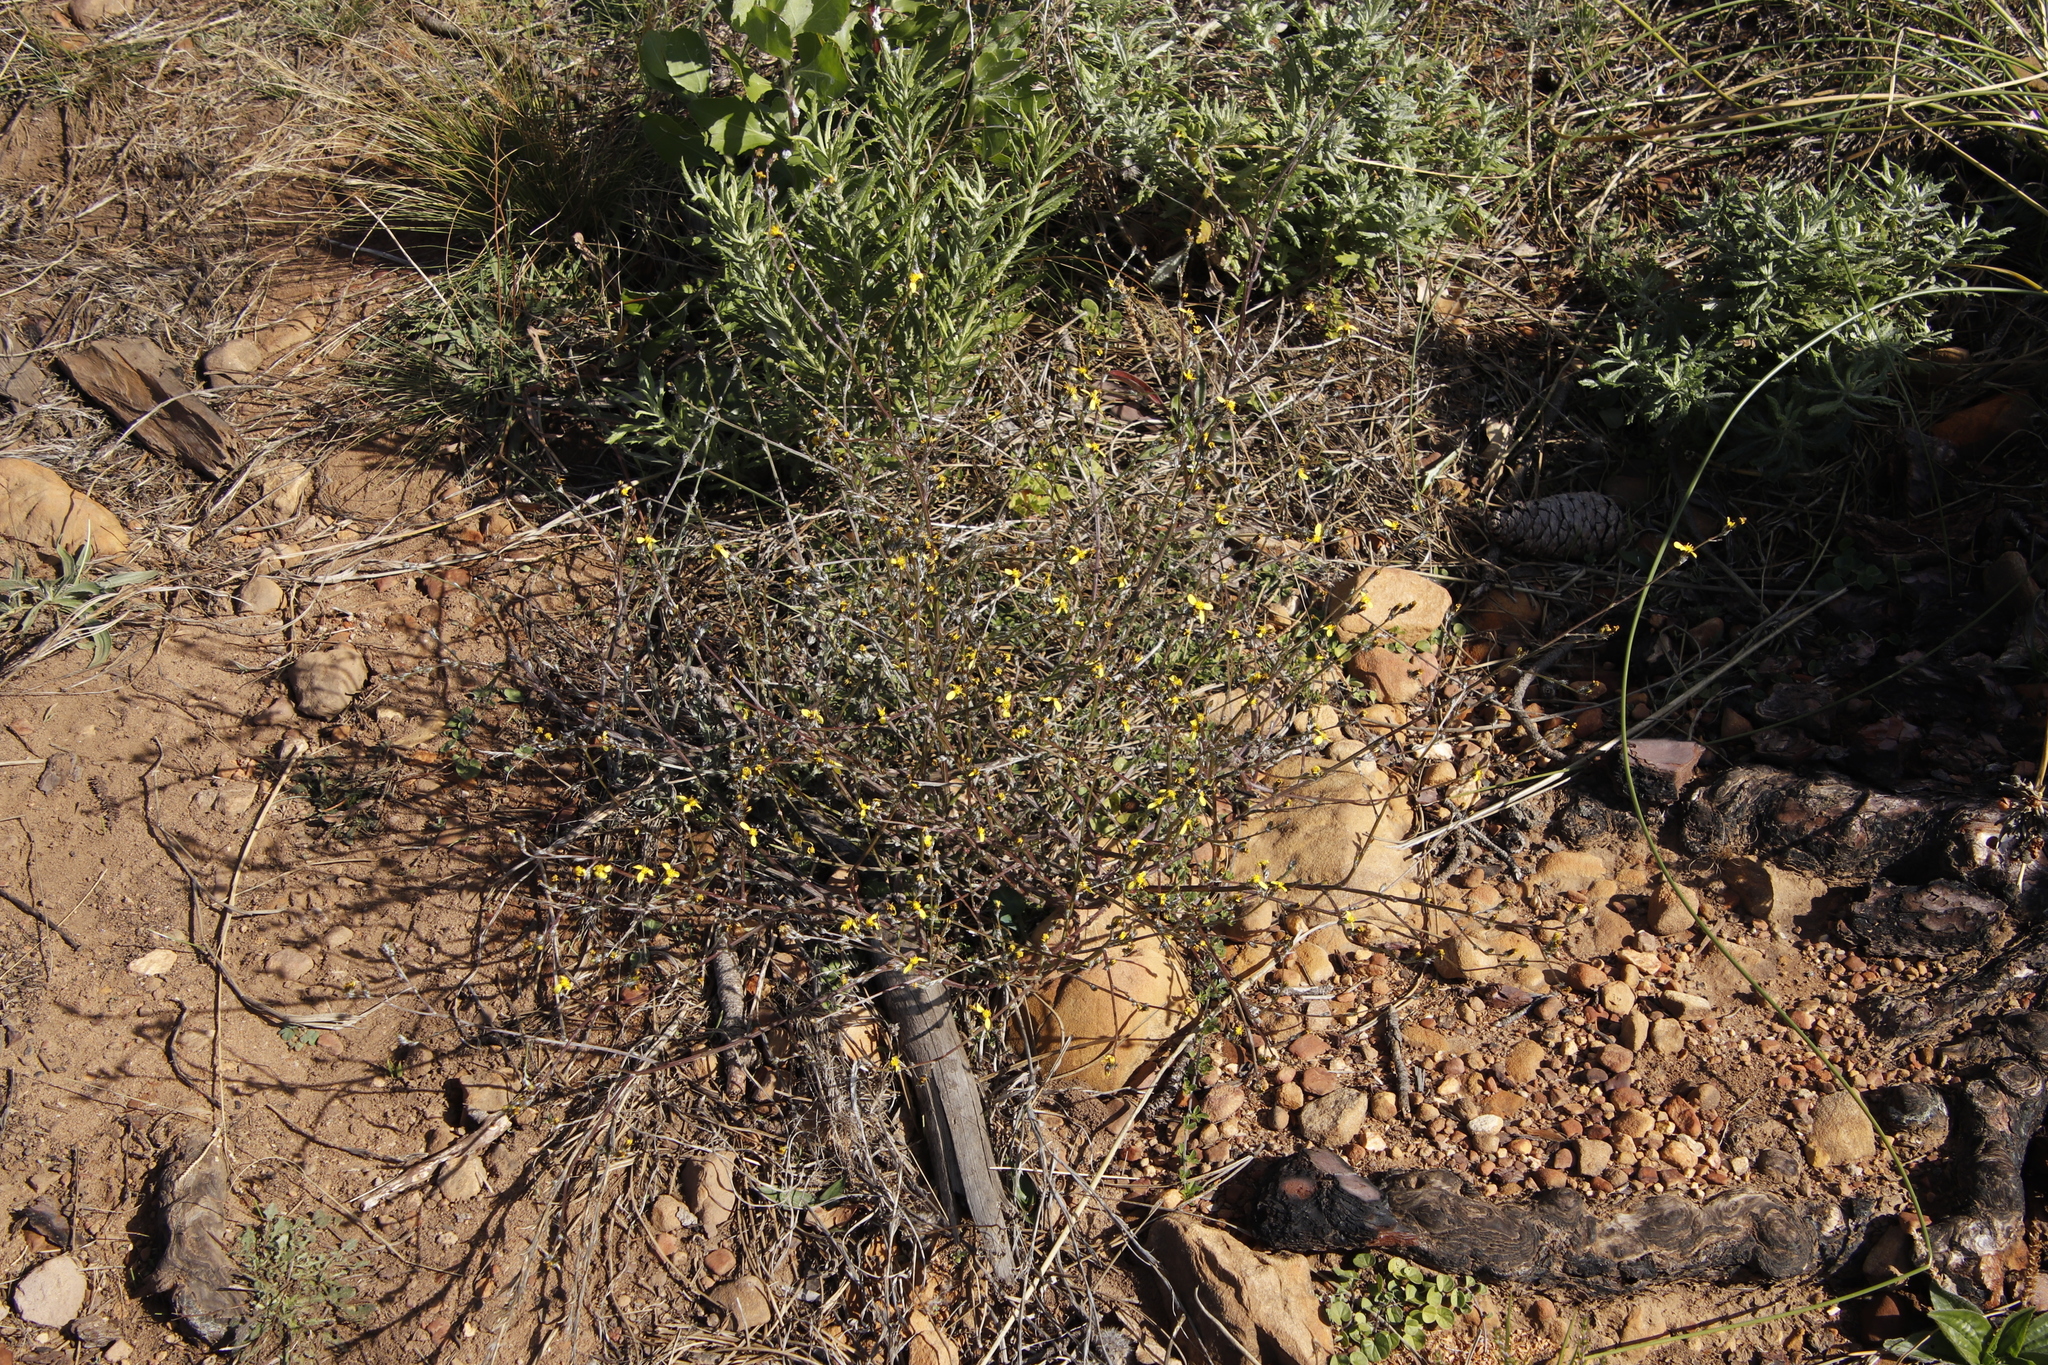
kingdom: Plantae
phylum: Tracheophyta
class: Magnoliopsida
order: Asterales
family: Asteraceae
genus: Senecio
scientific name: Senecio pubigerus
